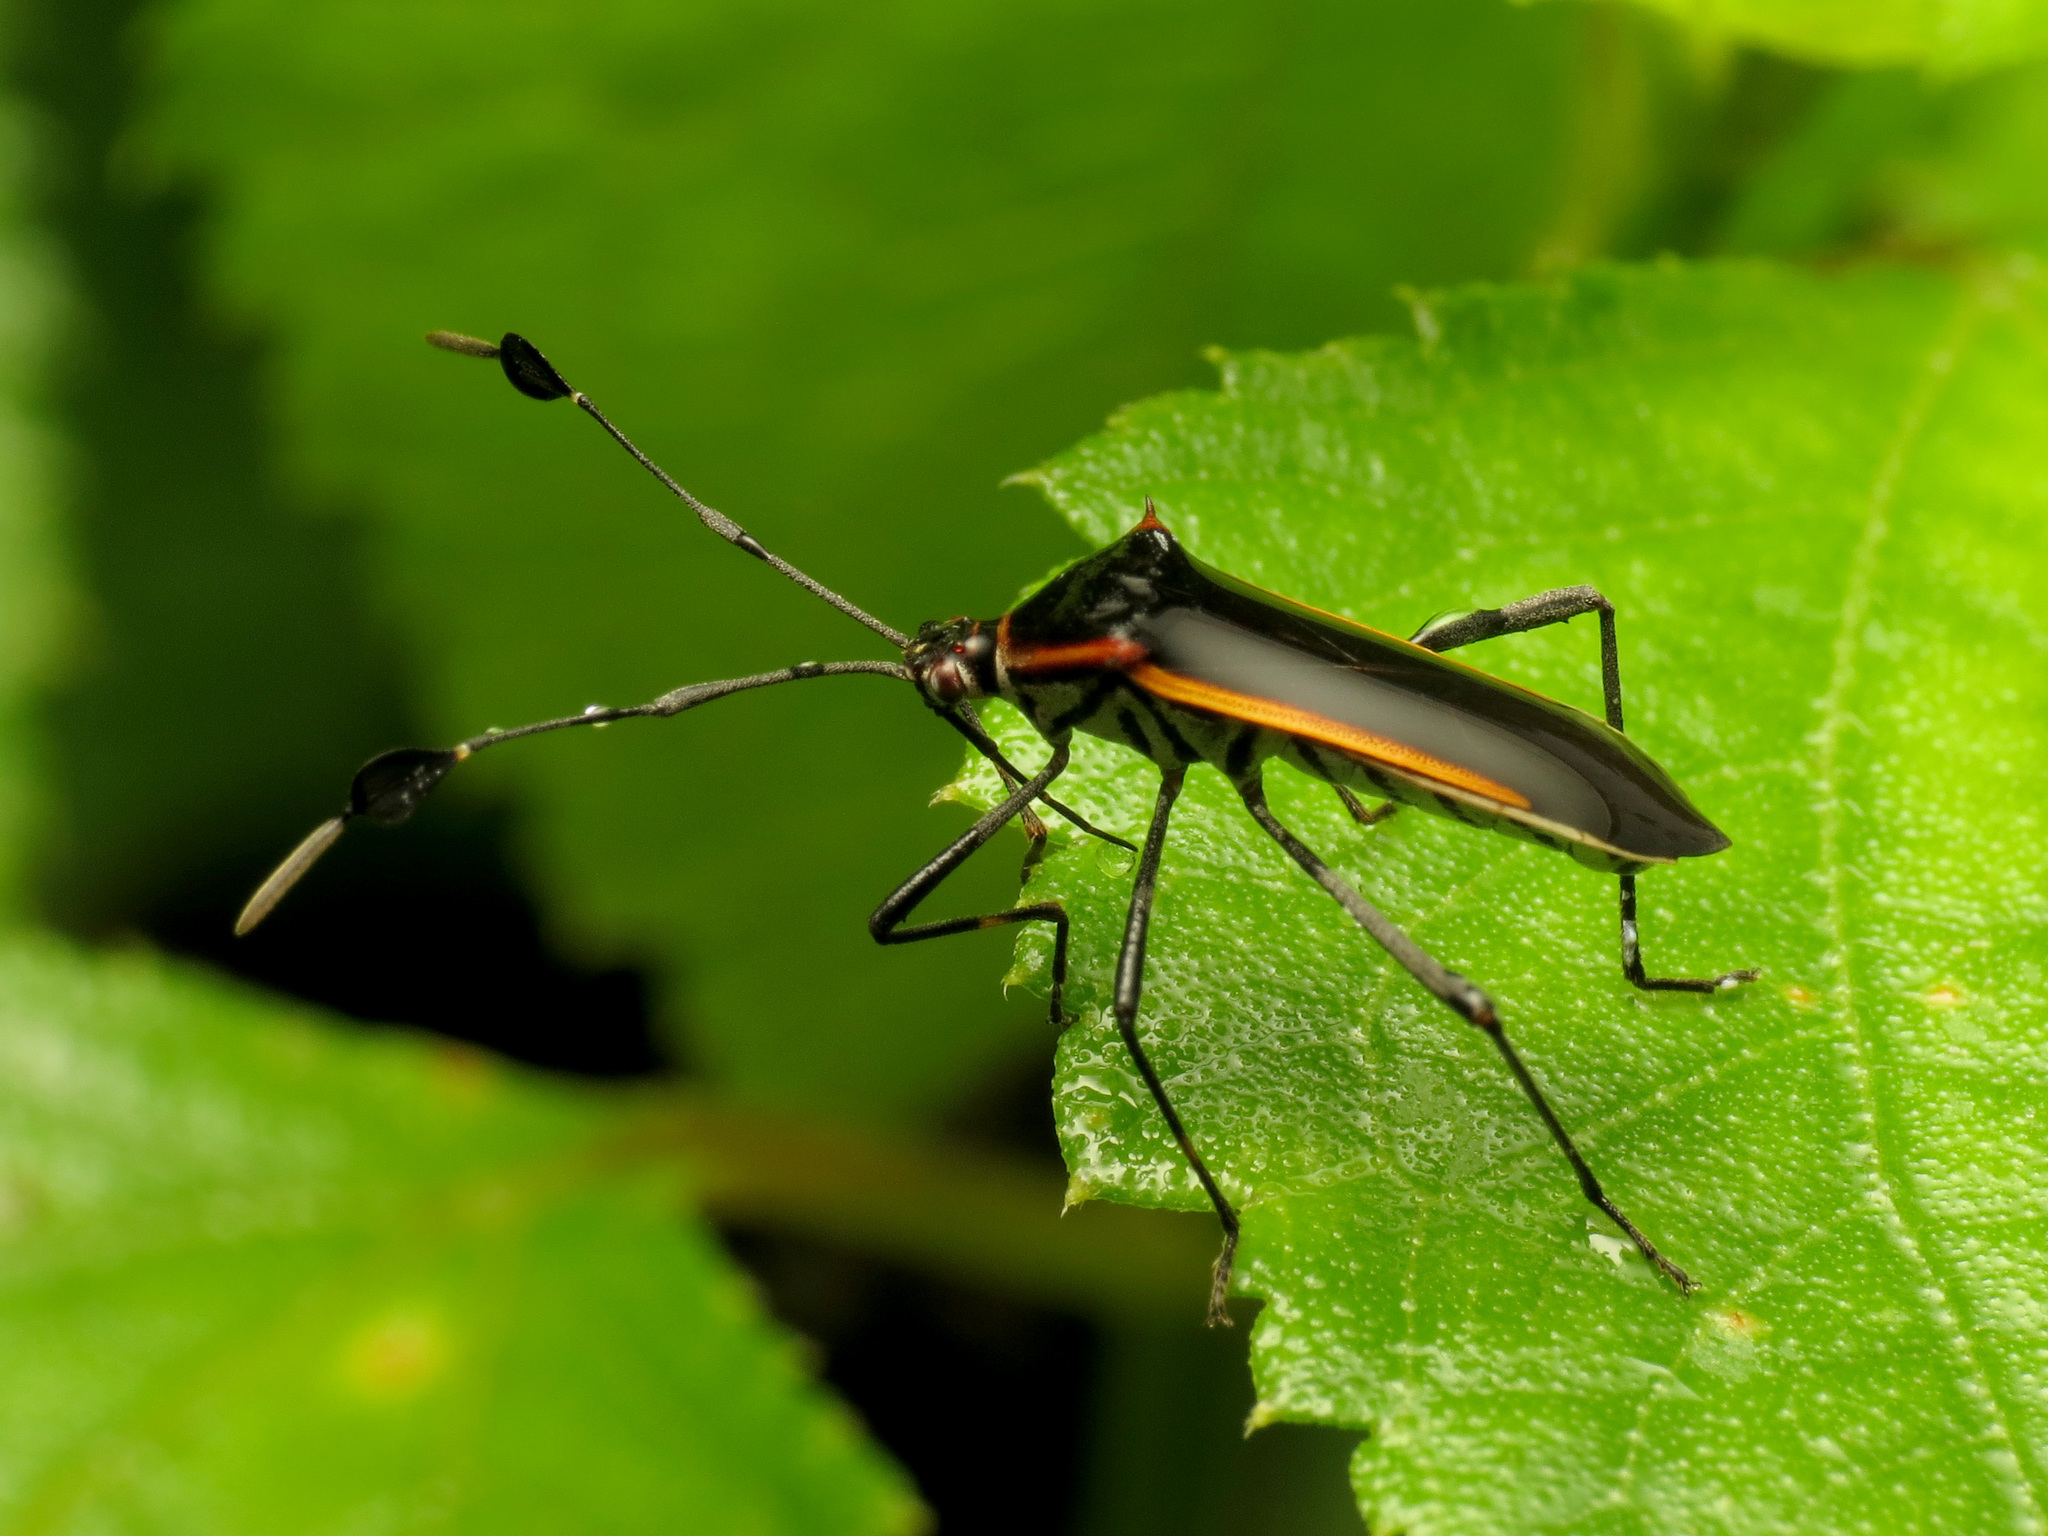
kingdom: Animalia
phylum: Arthropoda
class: Insecta
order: Hemiptera
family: Coreidae
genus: Plapigus
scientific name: Plapigus circumcinctus
